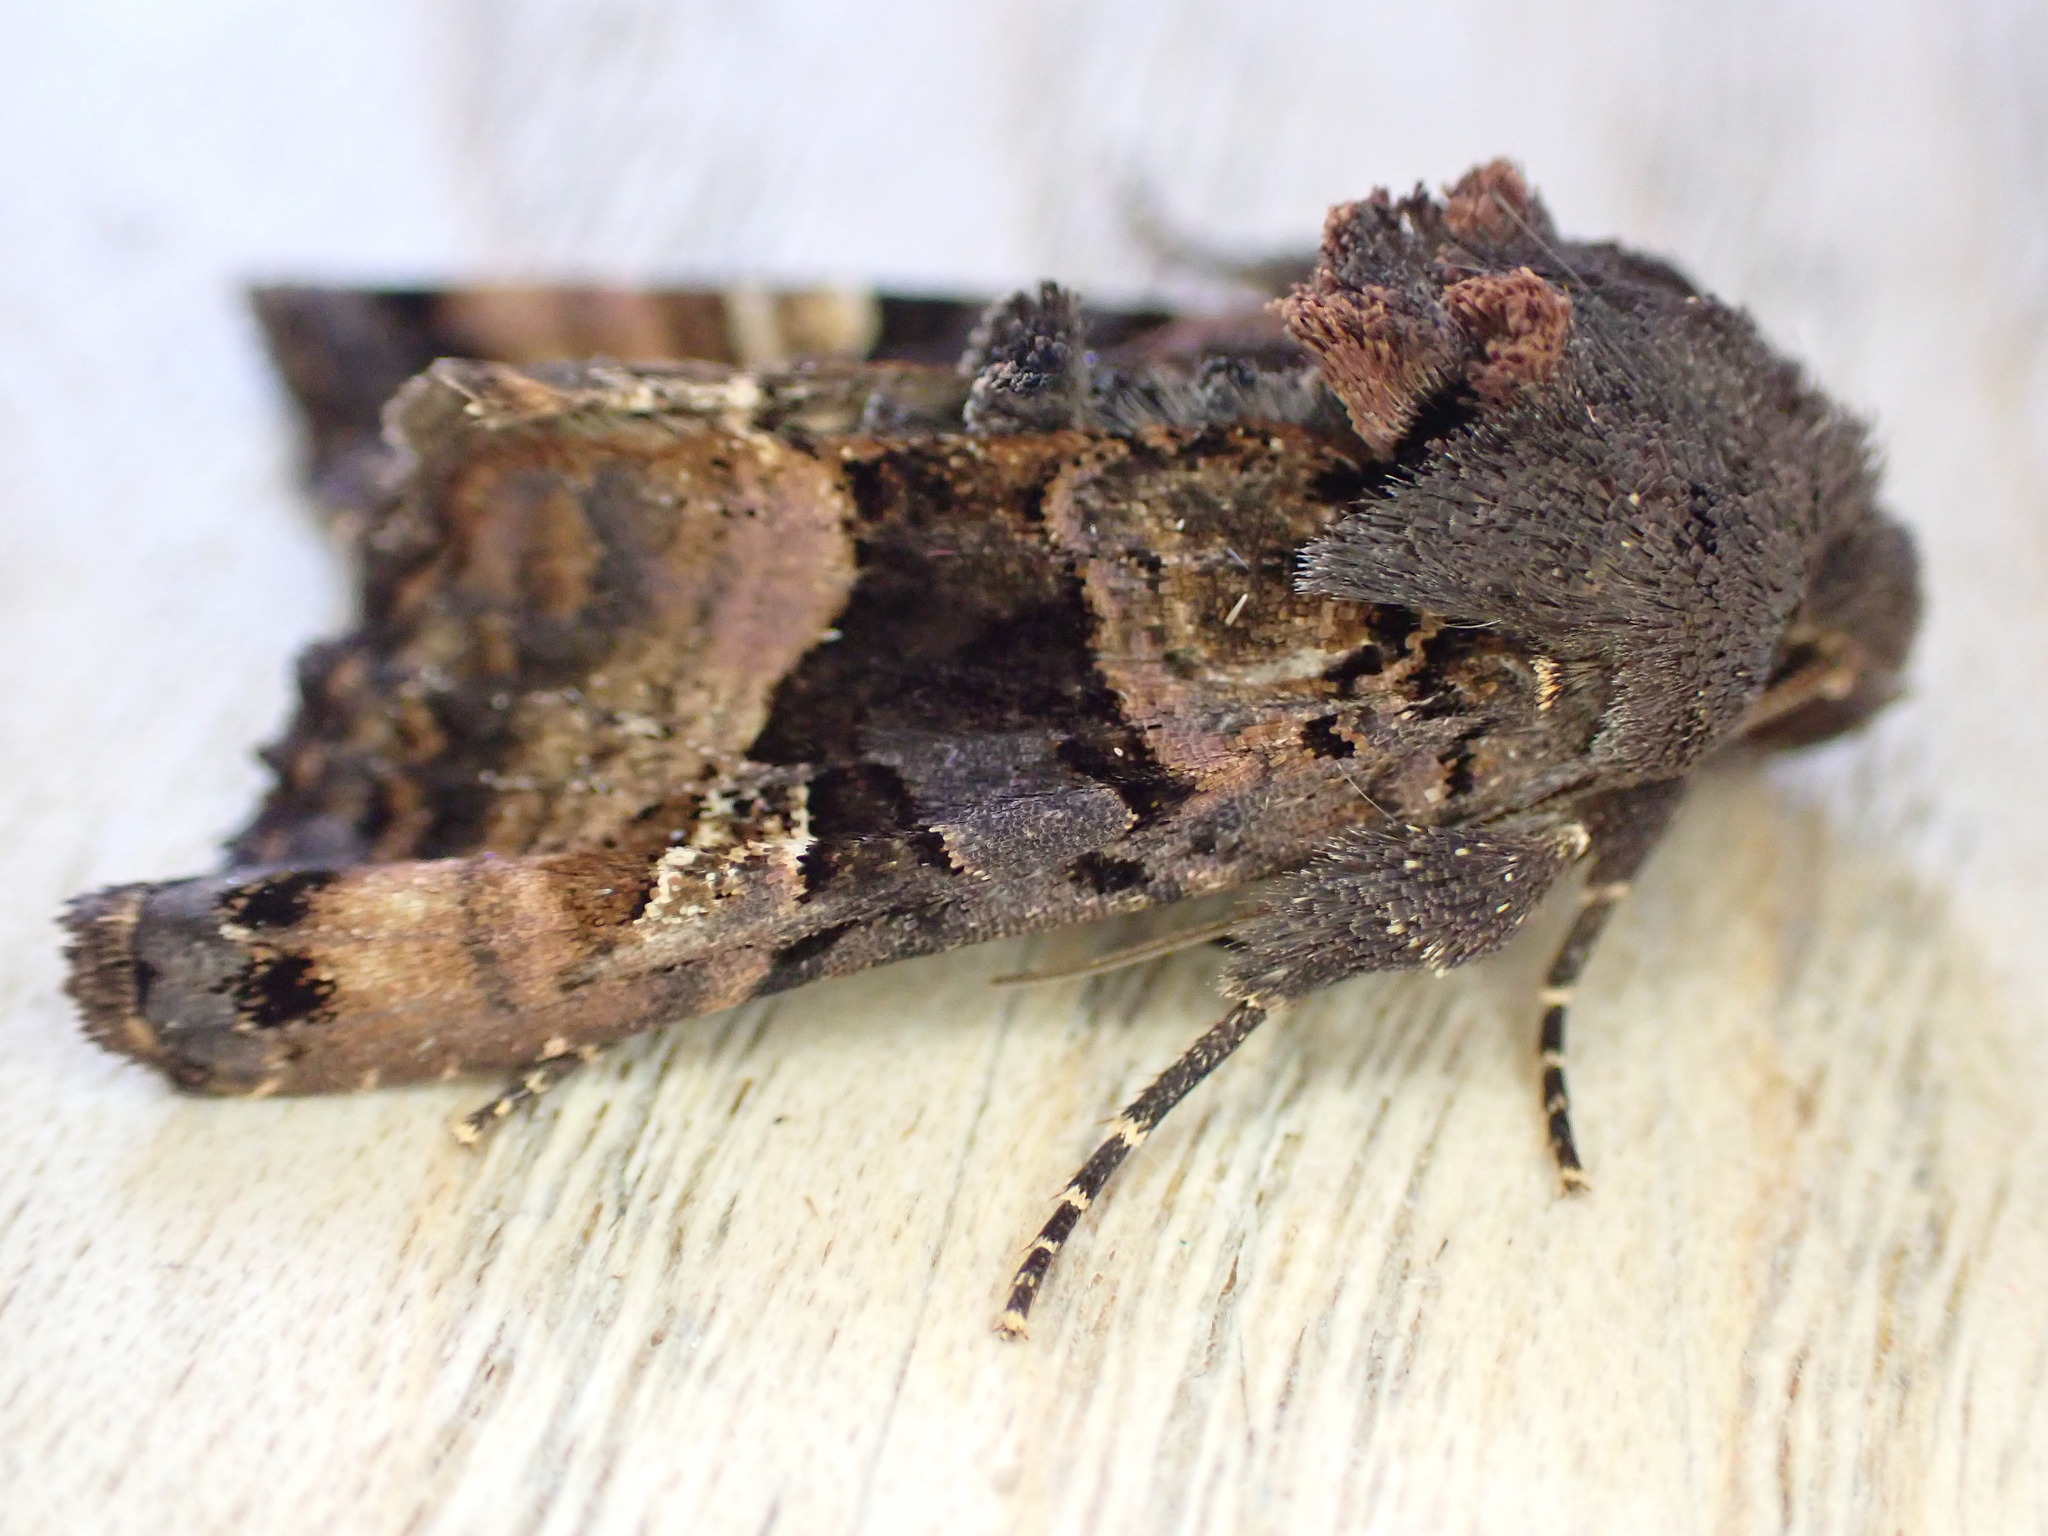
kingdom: Animalia
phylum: Arthropoda
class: Insecta
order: Lepidoptera
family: Noctuidae
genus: Euplexia
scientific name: Euplexia lucipara
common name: Small angle shades
